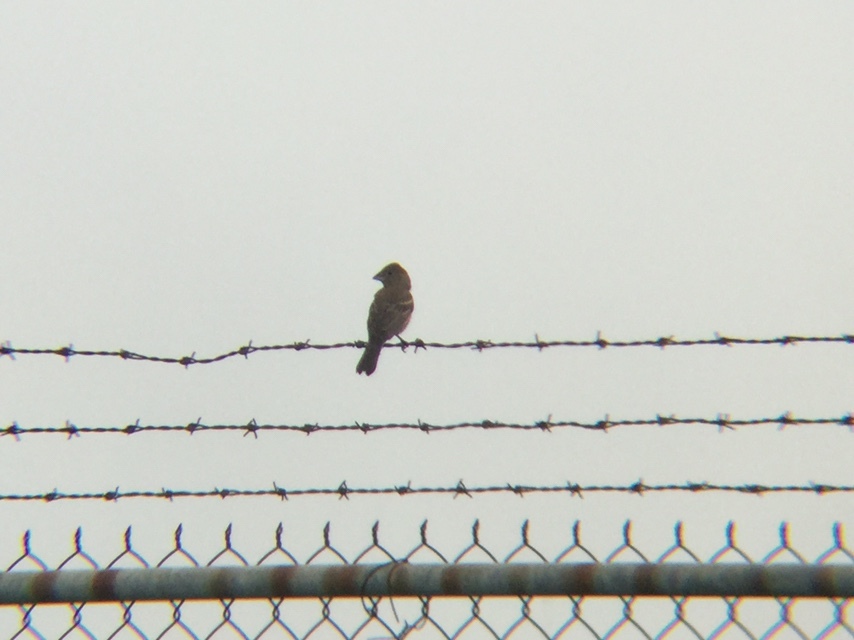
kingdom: Animalia
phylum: Chordata
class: Aves
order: Passeriformes
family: Cardinalidae
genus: Passerina
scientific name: Passerina caerulea
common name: Blue grosbeak
